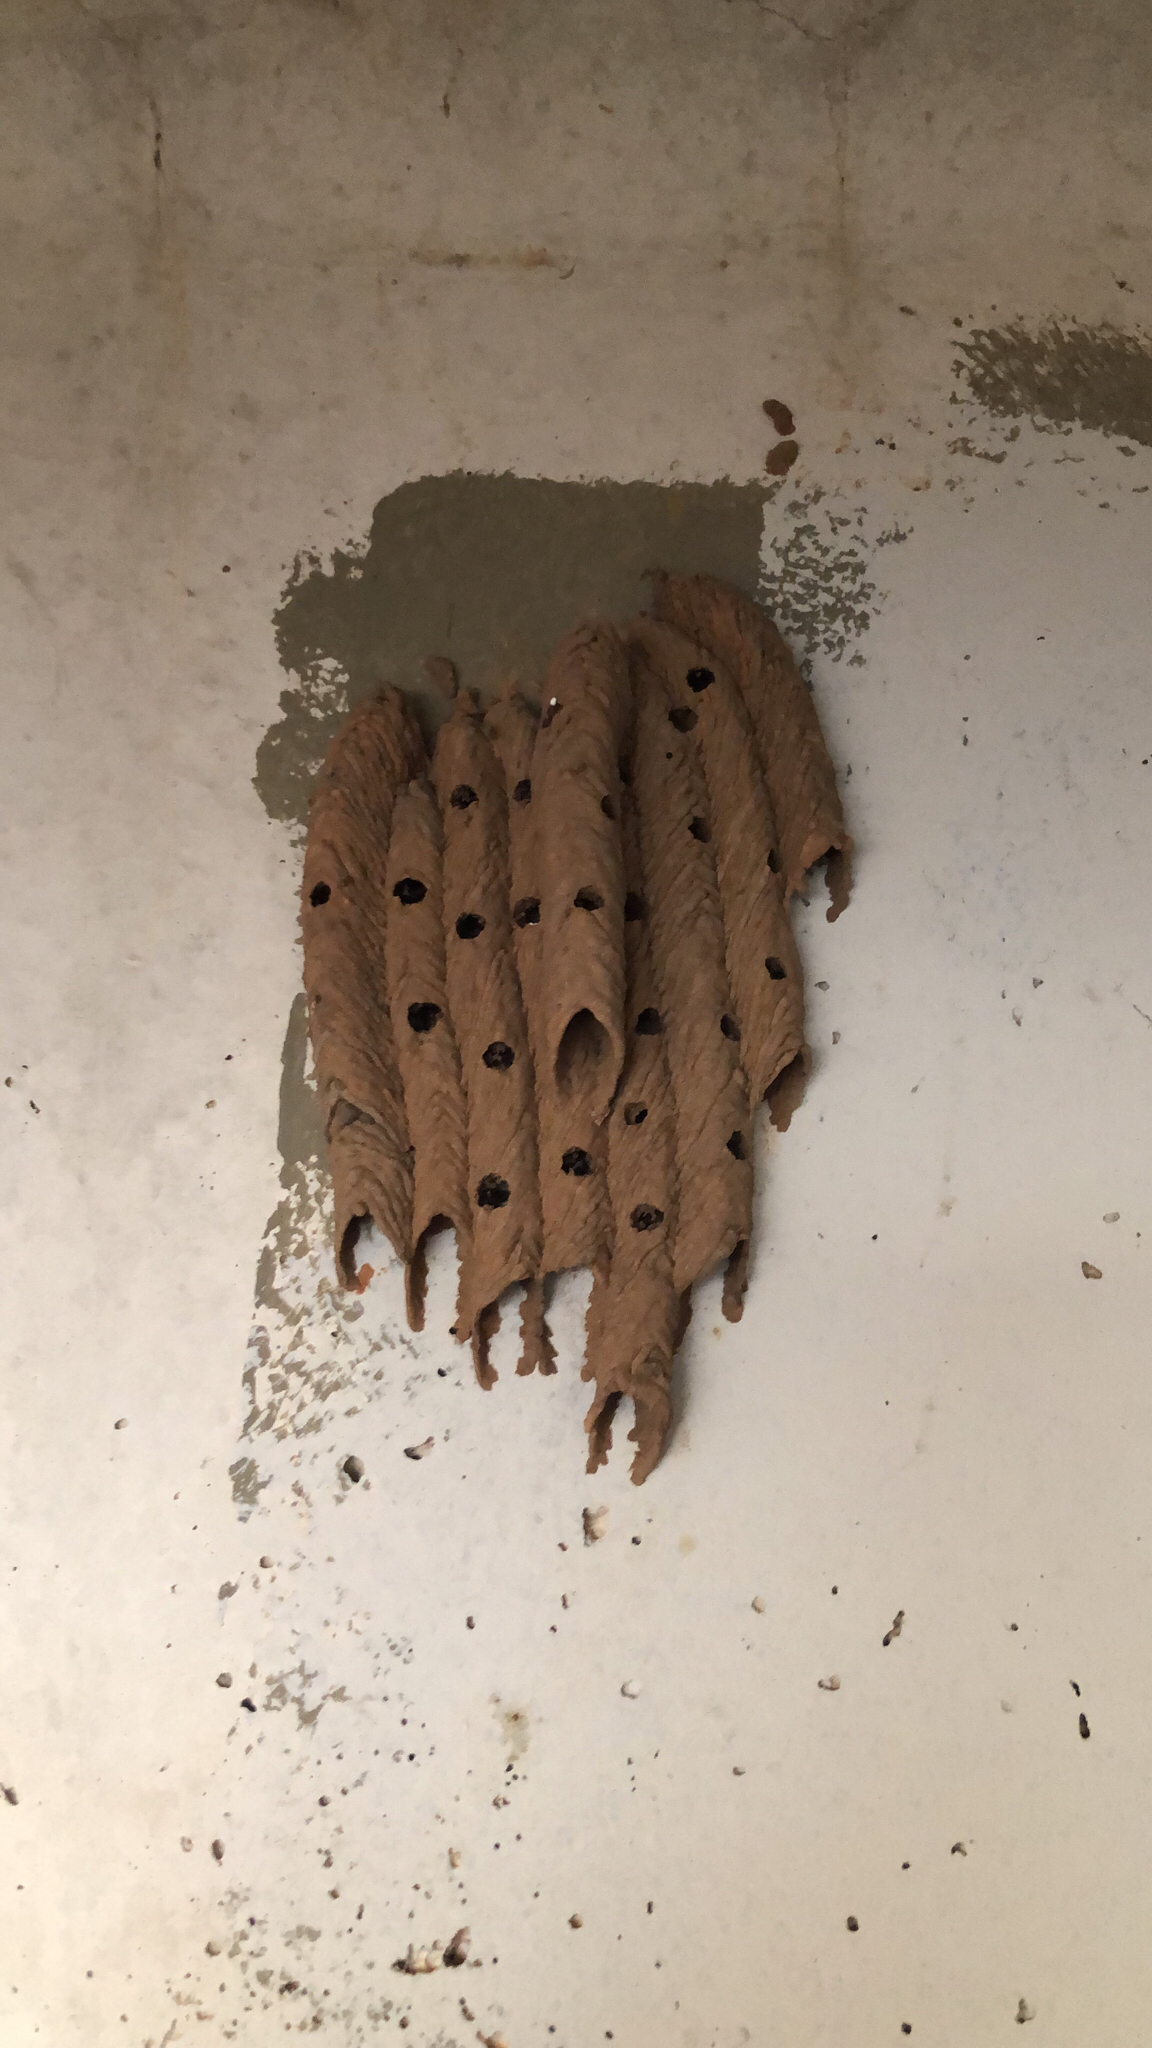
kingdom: Animalia
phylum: Arthropoda
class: Insecta
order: Hymenoptera
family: Crabronidae
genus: Trypoxylon
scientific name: Trypoxylon politum
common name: Organ-pipe mud-dauber wasp
